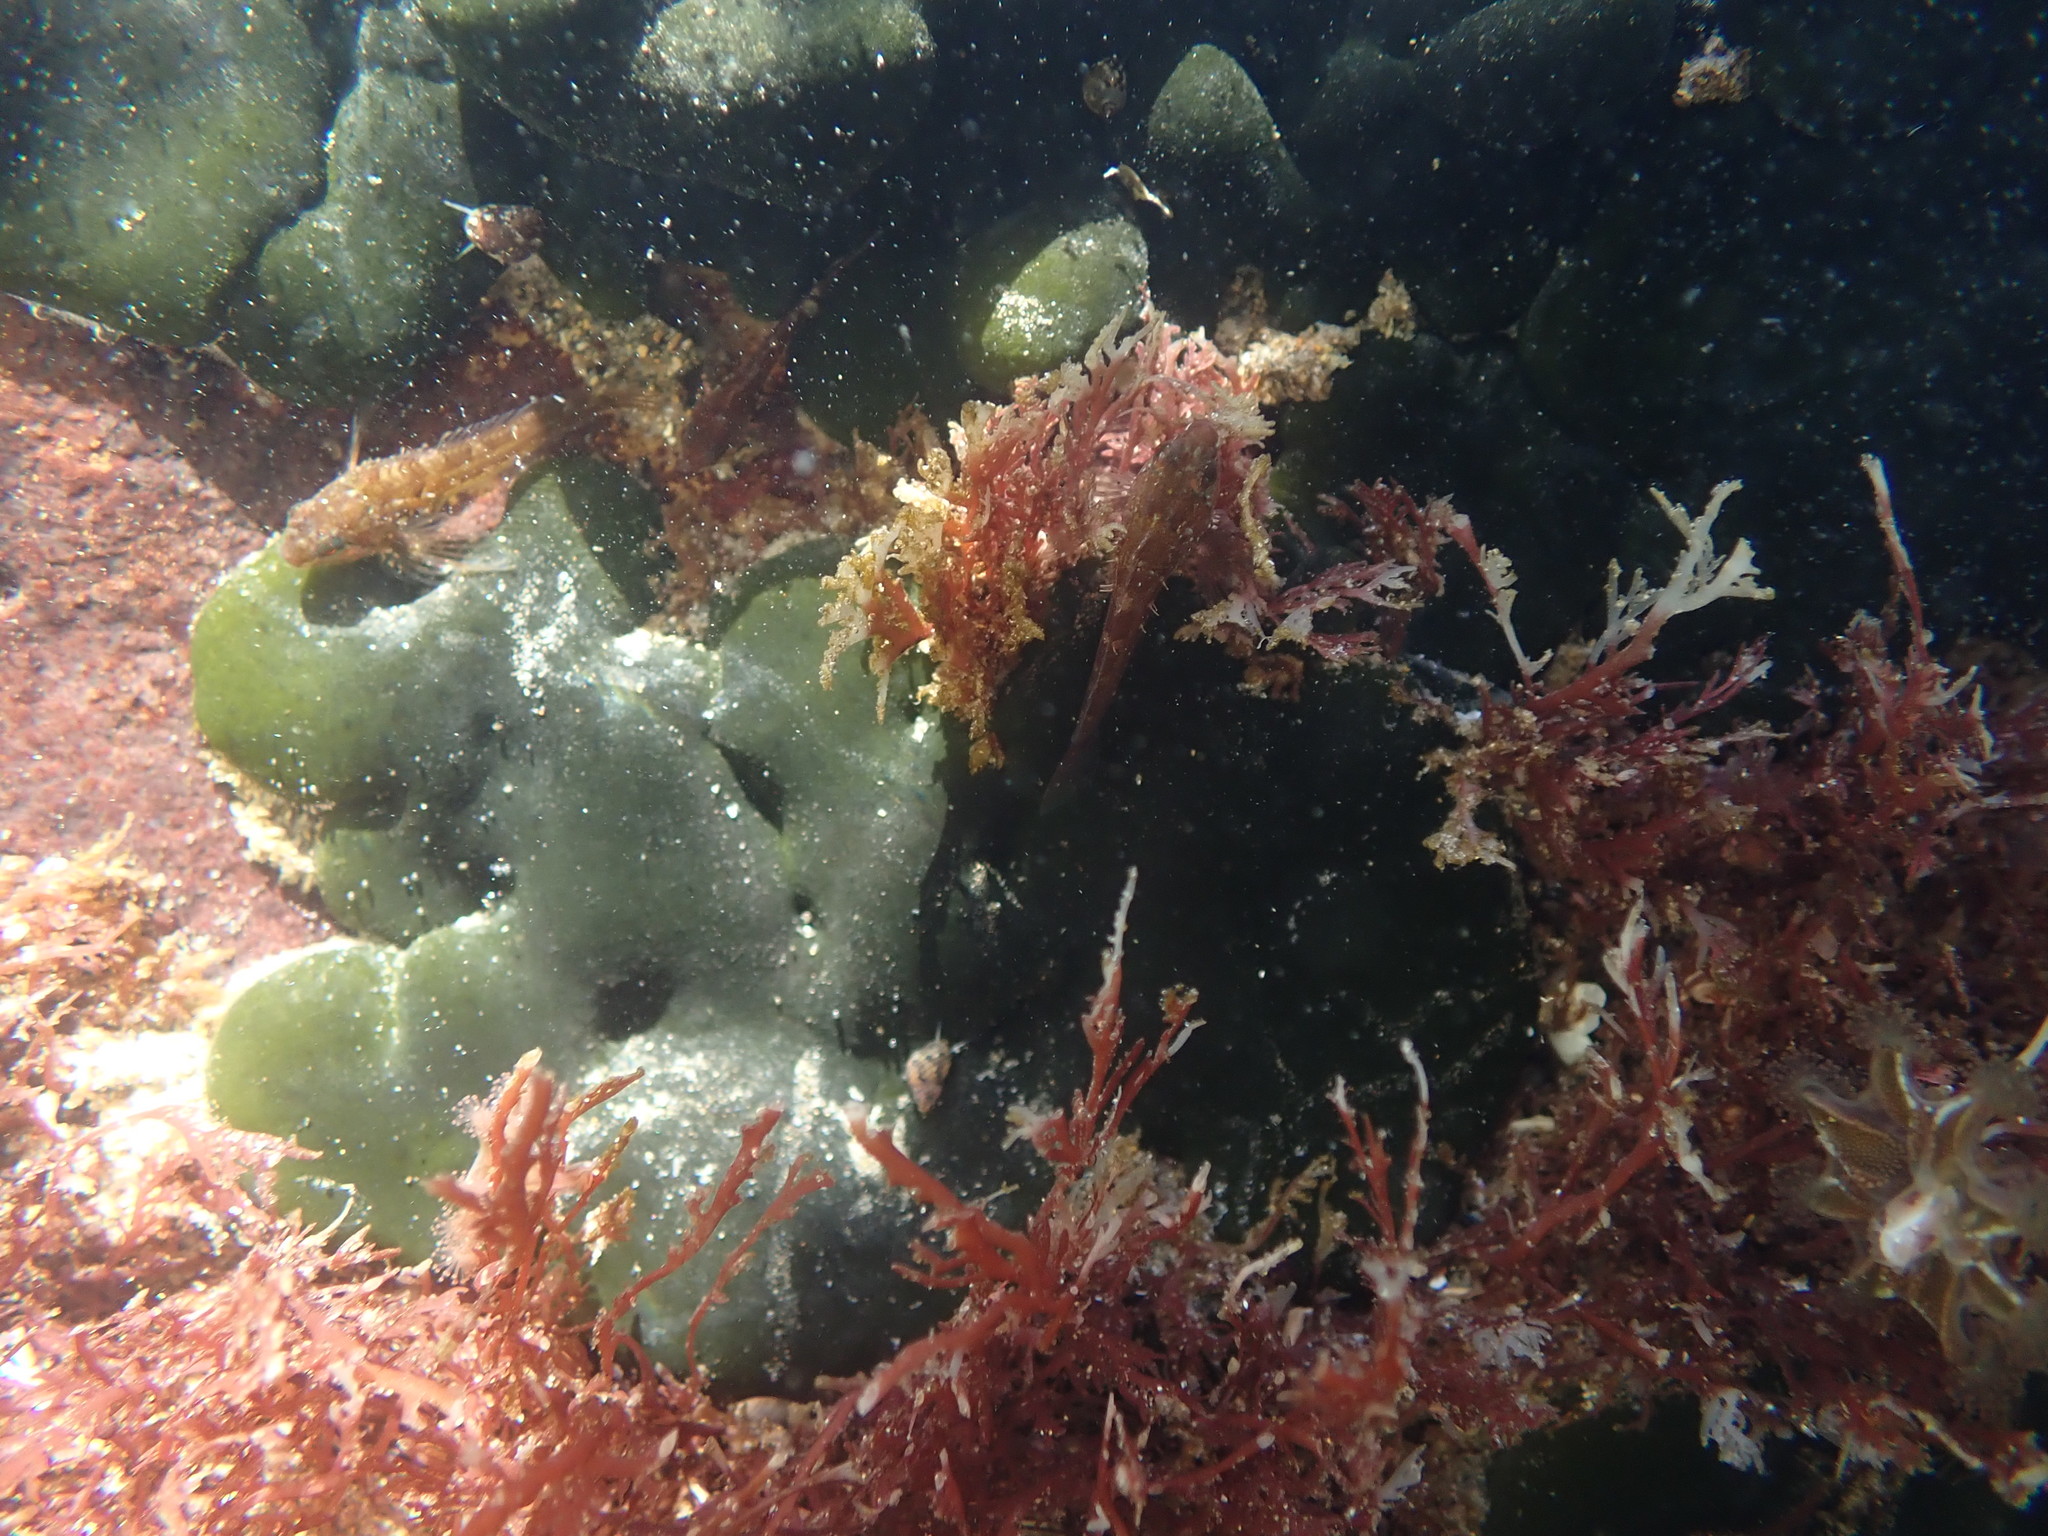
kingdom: Plantae
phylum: Chlorophyta
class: Ulvophyceae
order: Bryopsidales
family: Codiaceae
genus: Codium
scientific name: Codium setchellii
